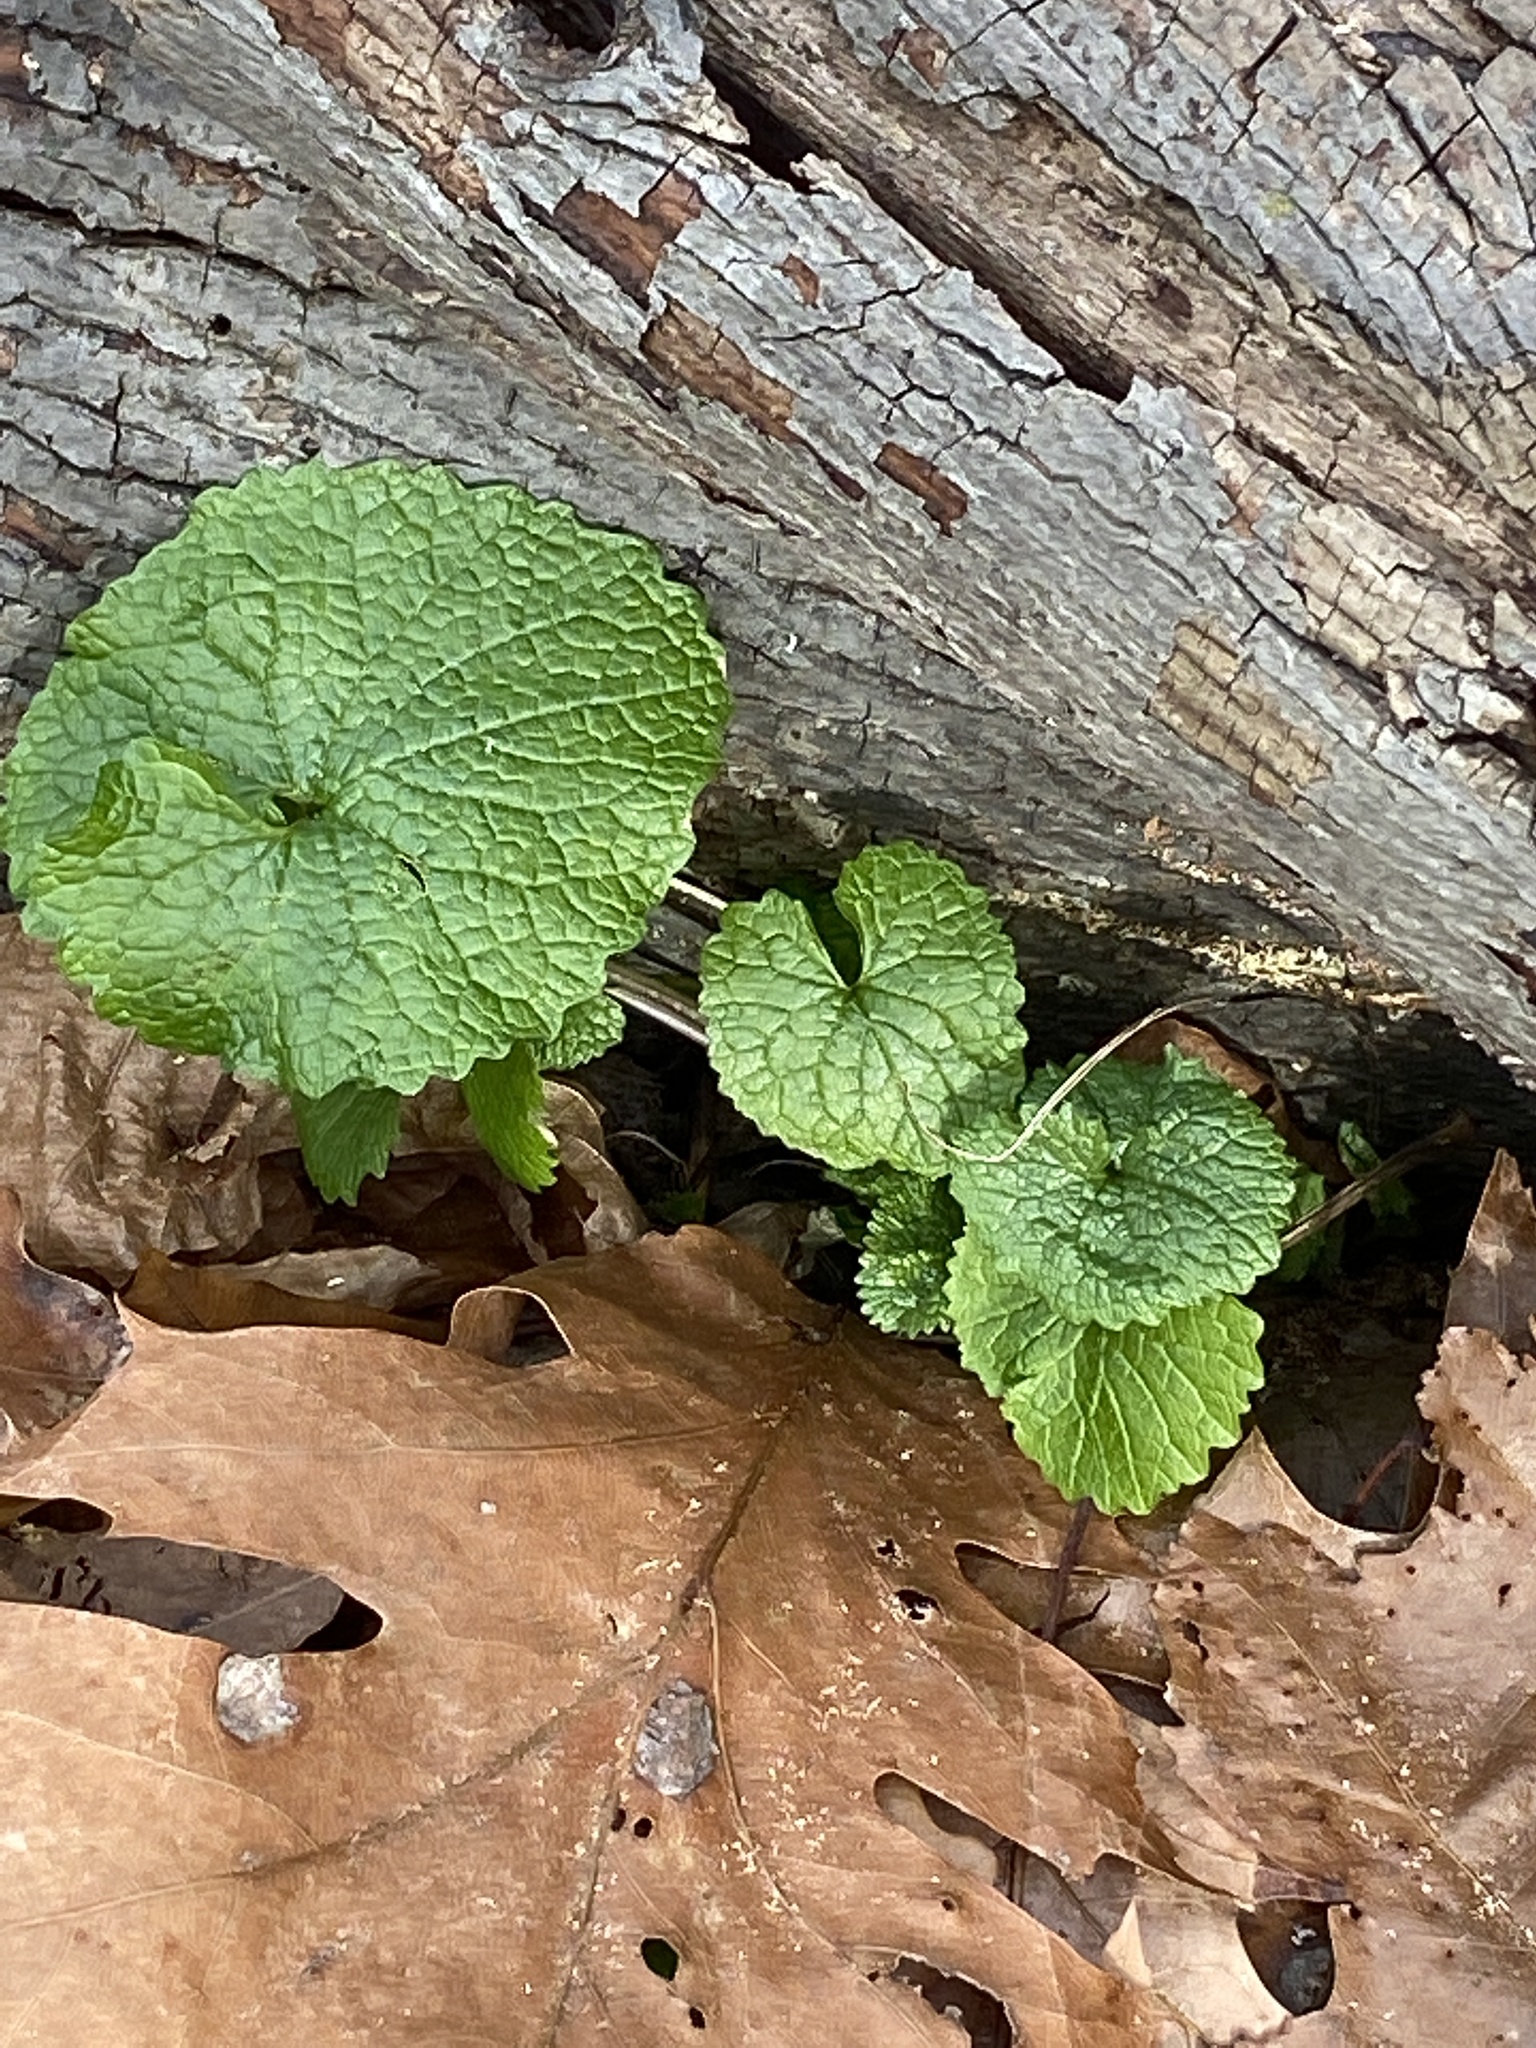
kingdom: Plantae
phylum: Tracheophyta
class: Magnoliopsida
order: Brassicales
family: Brassicaceae
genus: Alliaria
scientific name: Alliaria petiolata
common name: Garlic mustard
